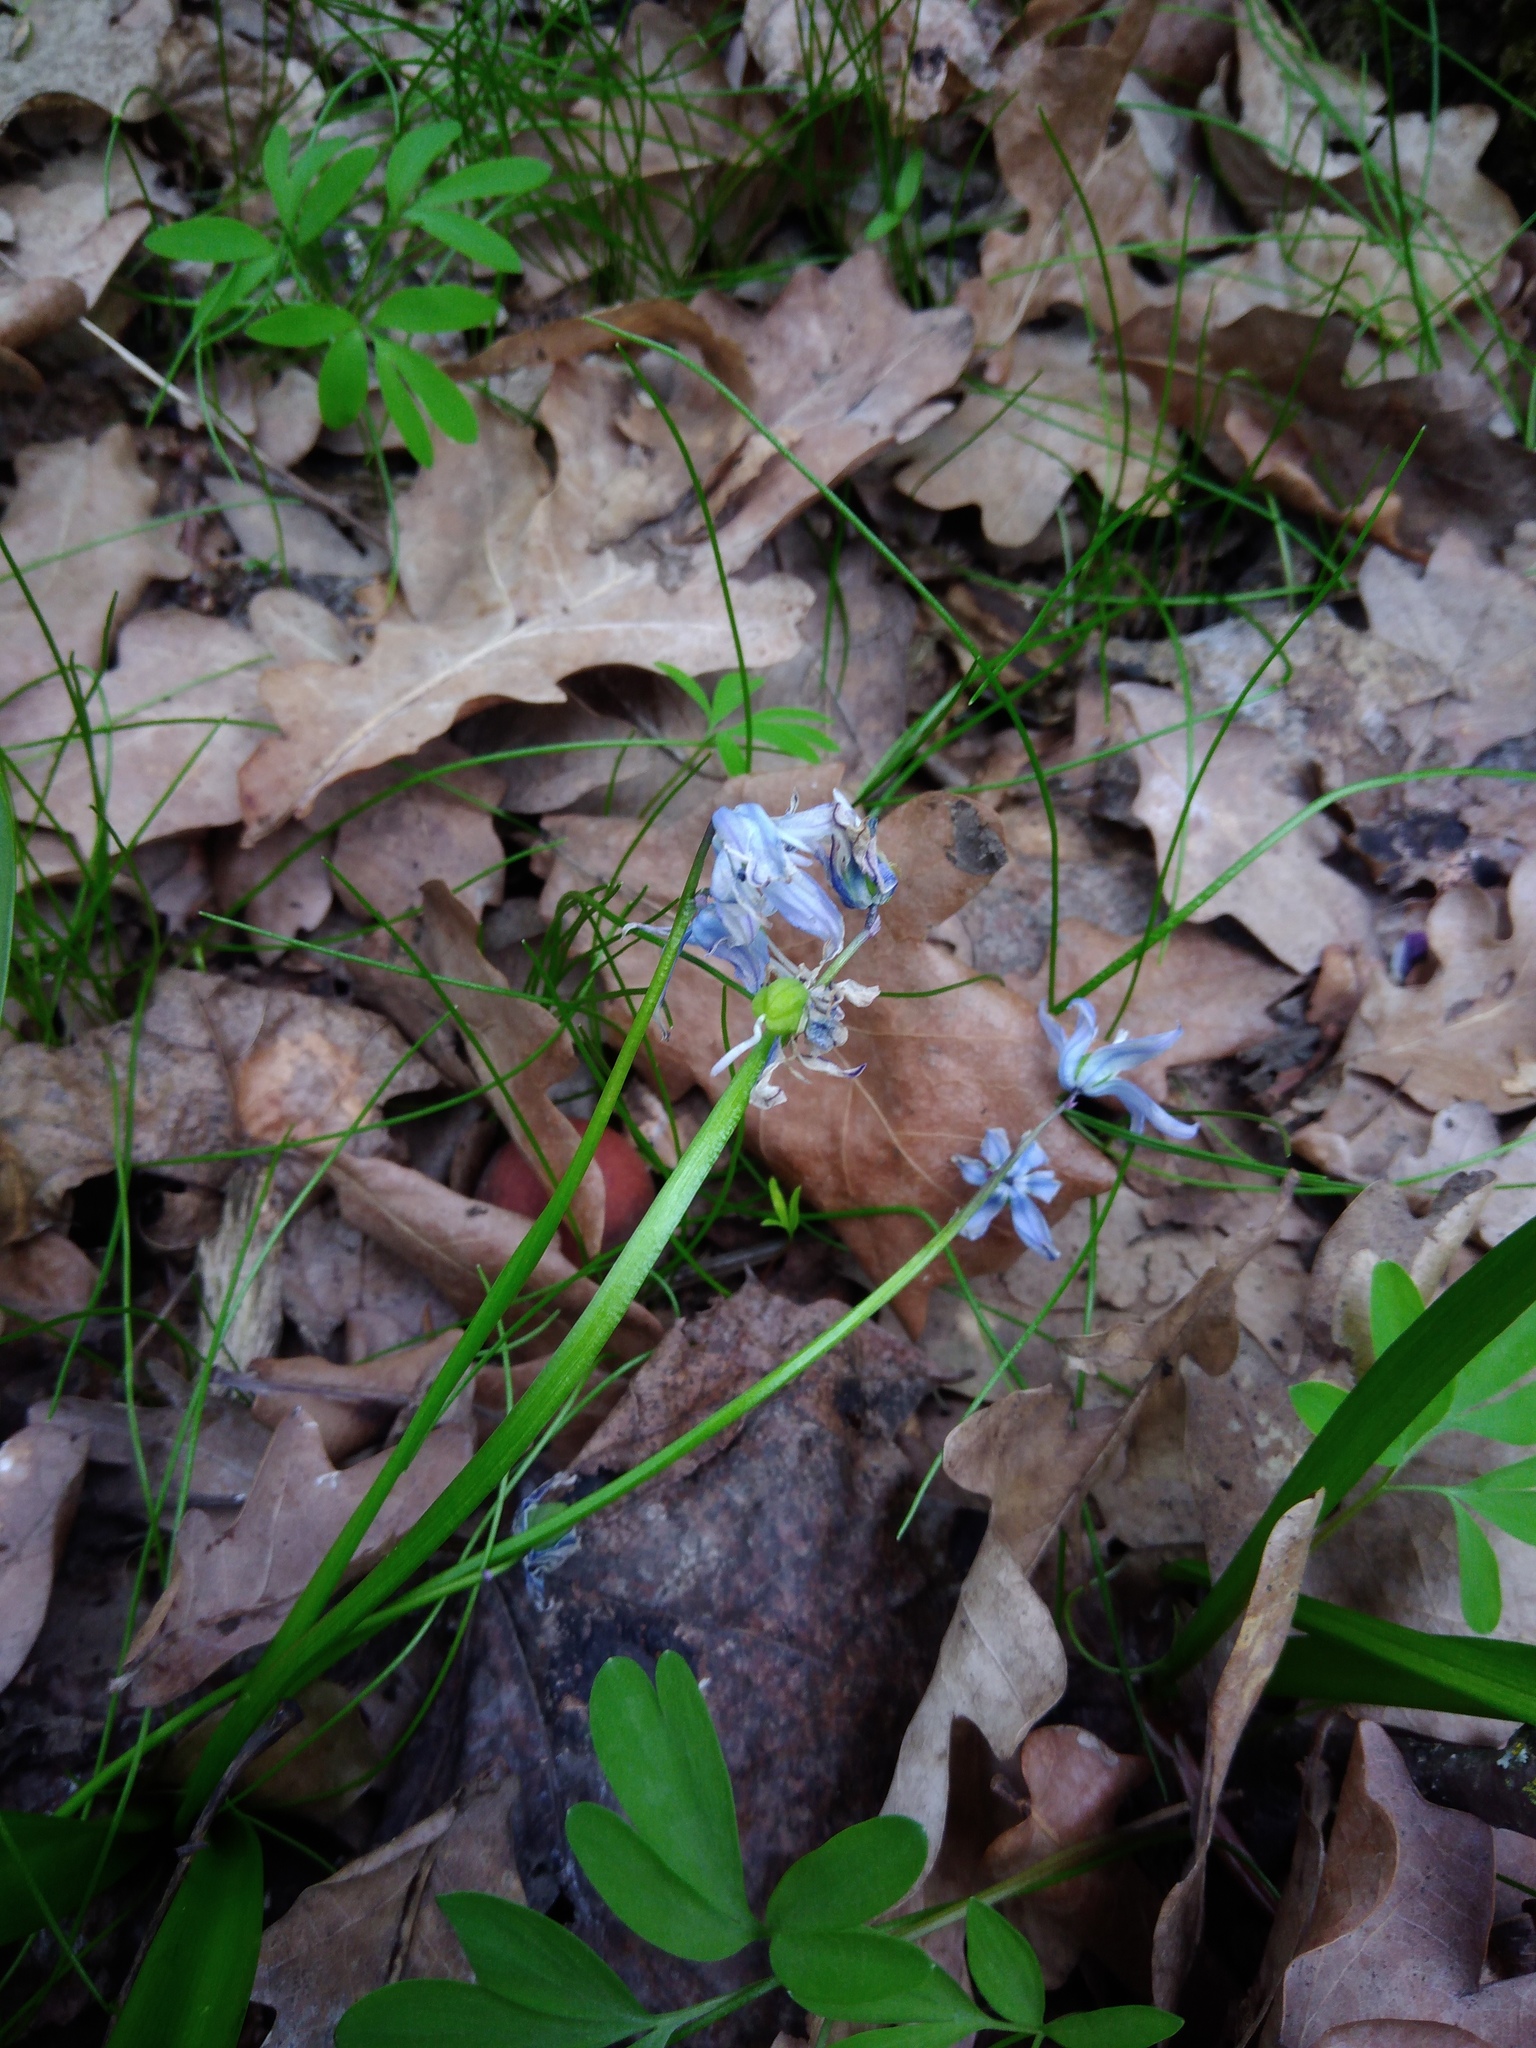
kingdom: Plantae
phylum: Tracheophyta
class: Liliopsida
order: Asparagales
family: Asparagaceae
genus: Scilla
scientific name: Scilla siberica
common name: Siberian squill
